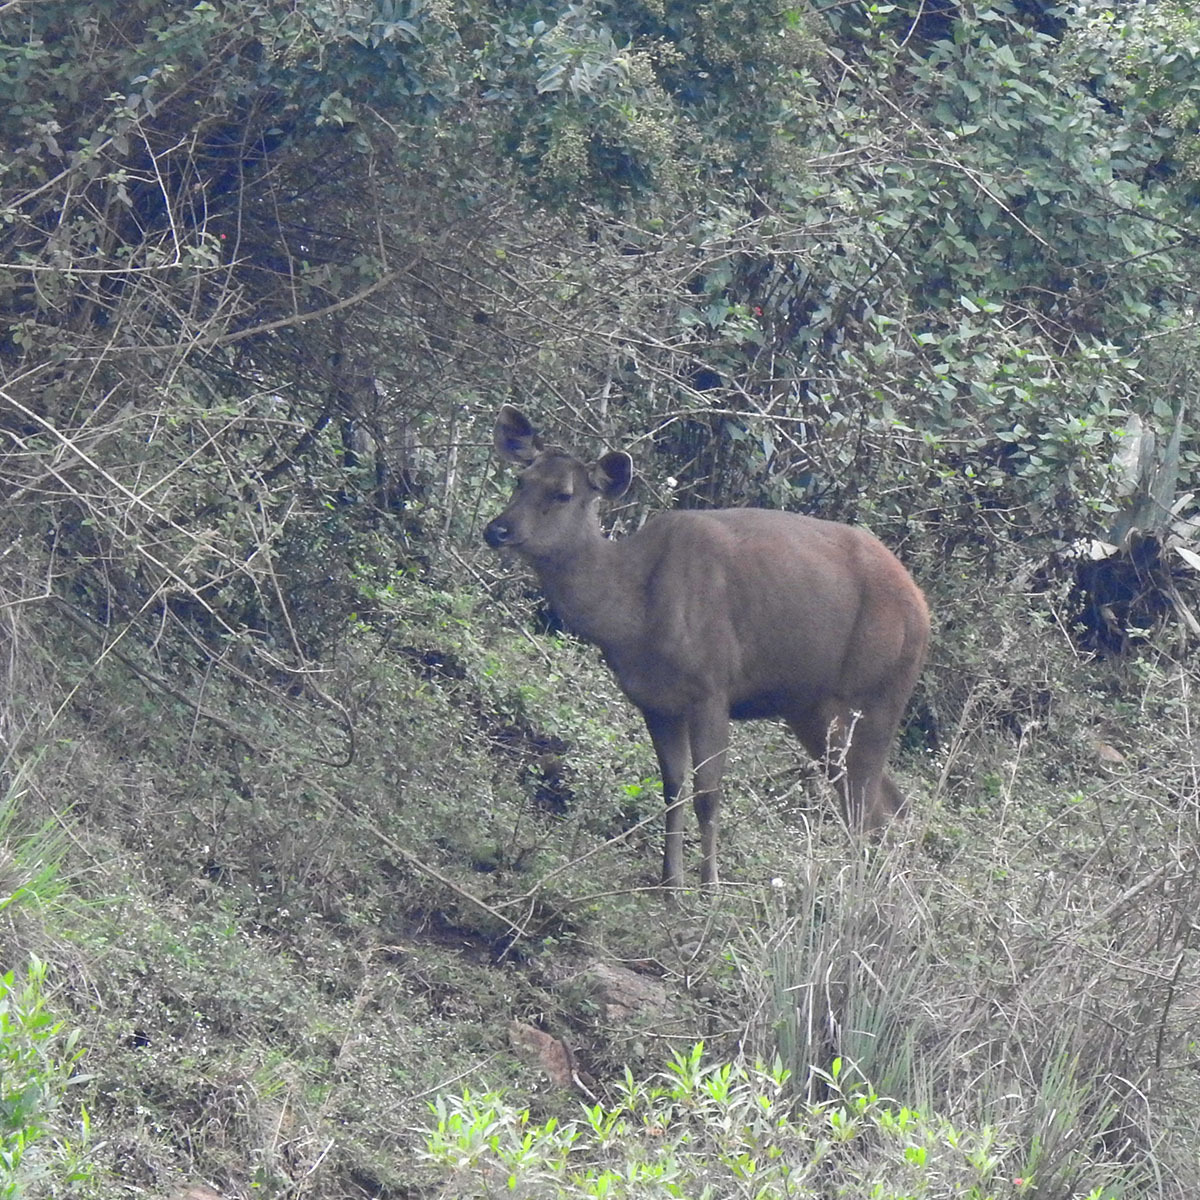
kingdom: Animalia
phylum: Chordata
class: Mammalia
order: Artiodactyla
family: Cervidae
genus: Rusa
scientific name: Rusa unicolor
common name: Sambar
